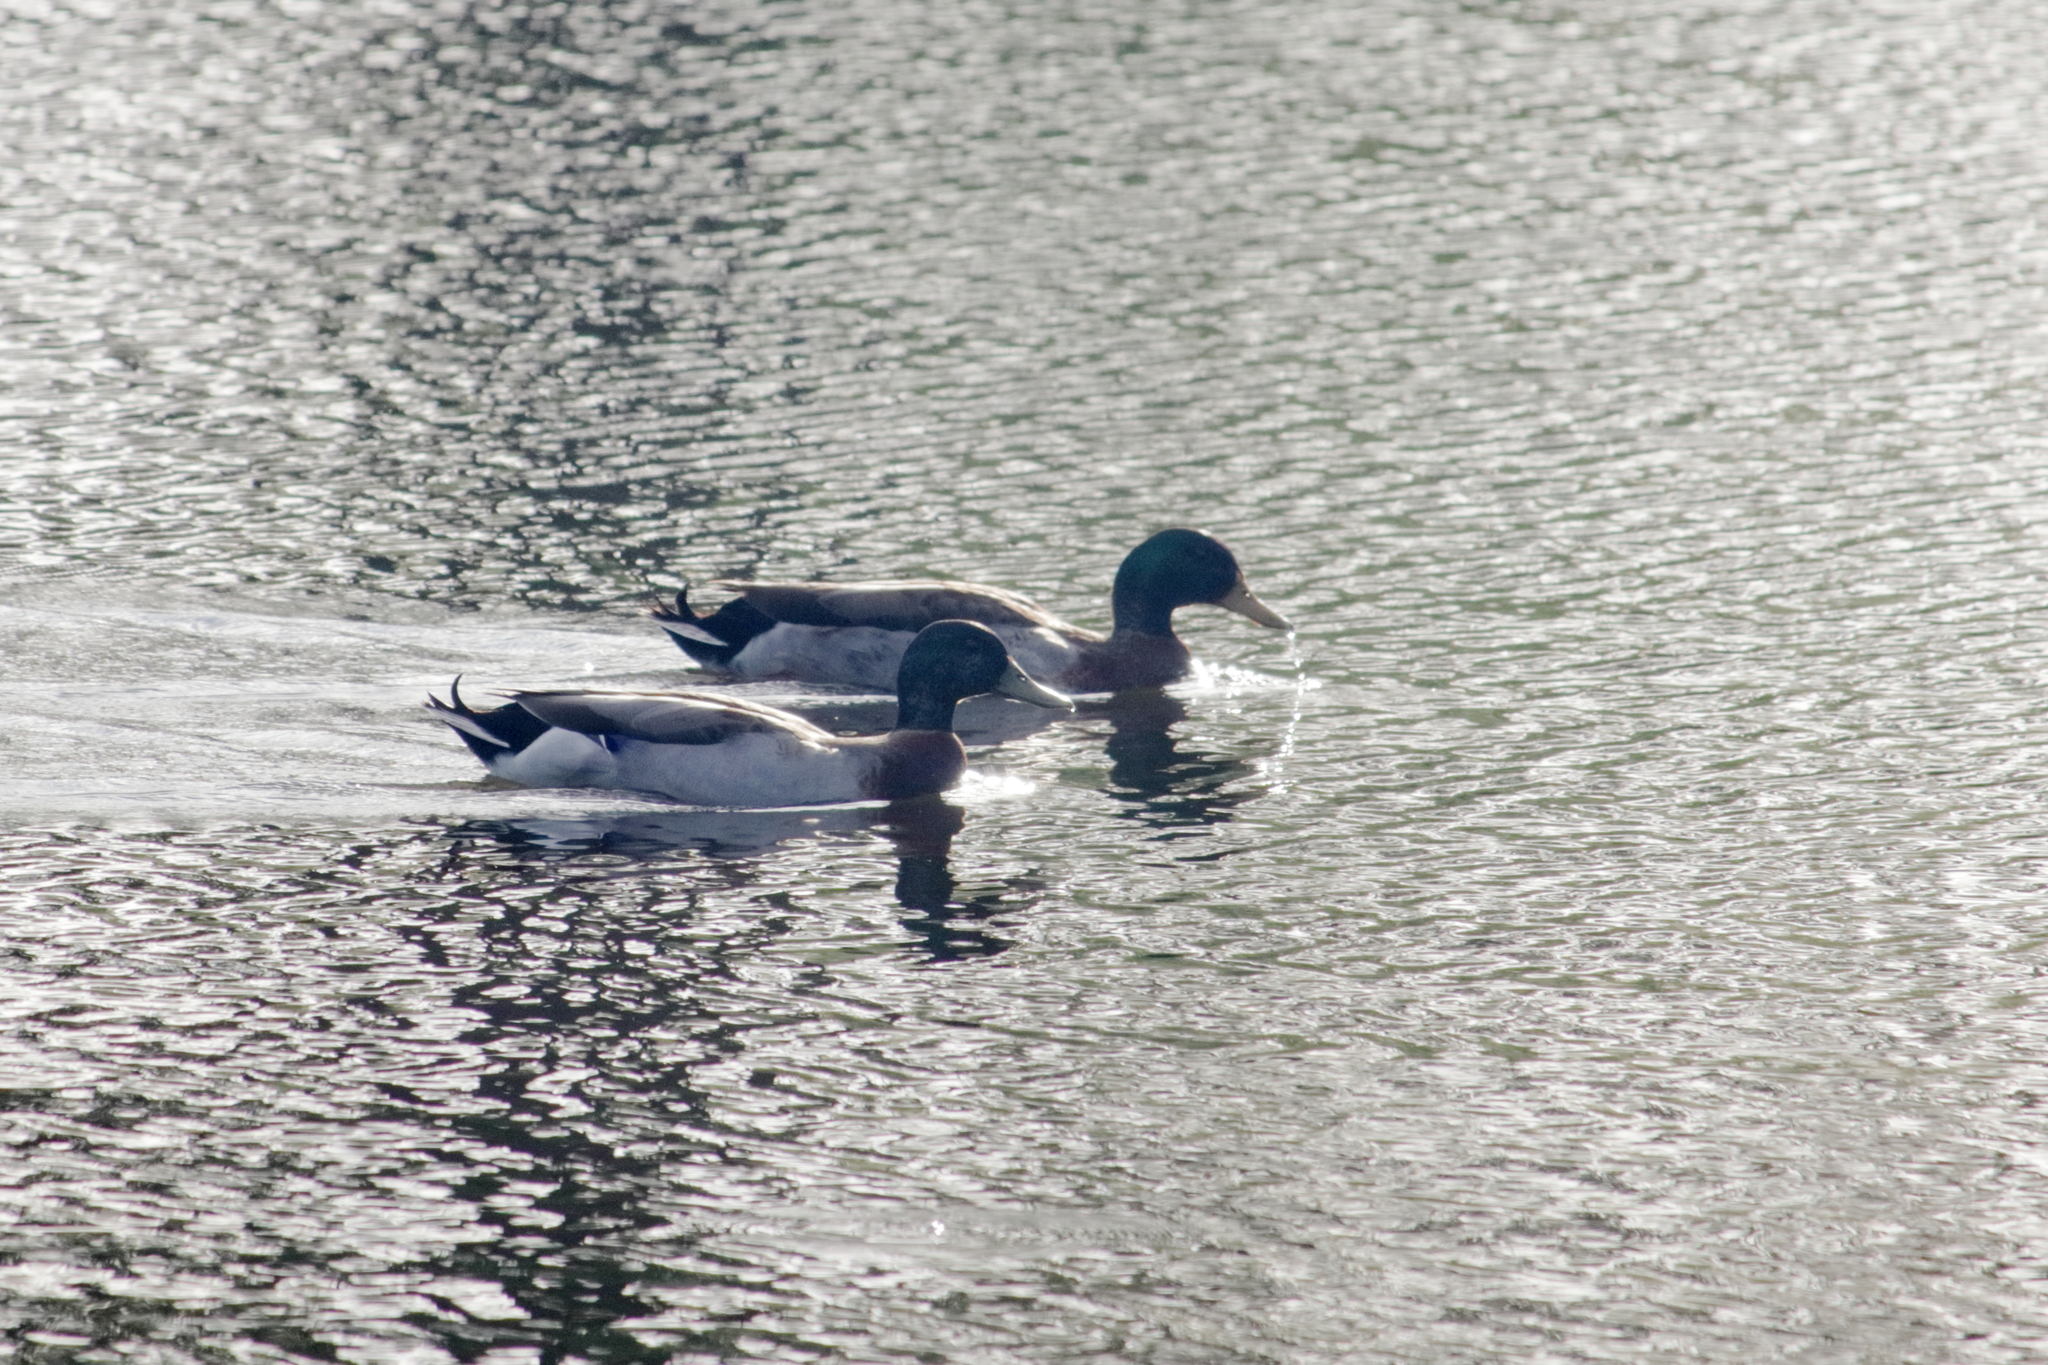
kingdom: Animalia
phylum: Chordata
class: Aves
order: Anseriformes
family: Anatidae
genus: Anas
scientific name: Anas platyrhynchos
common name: Mallard
